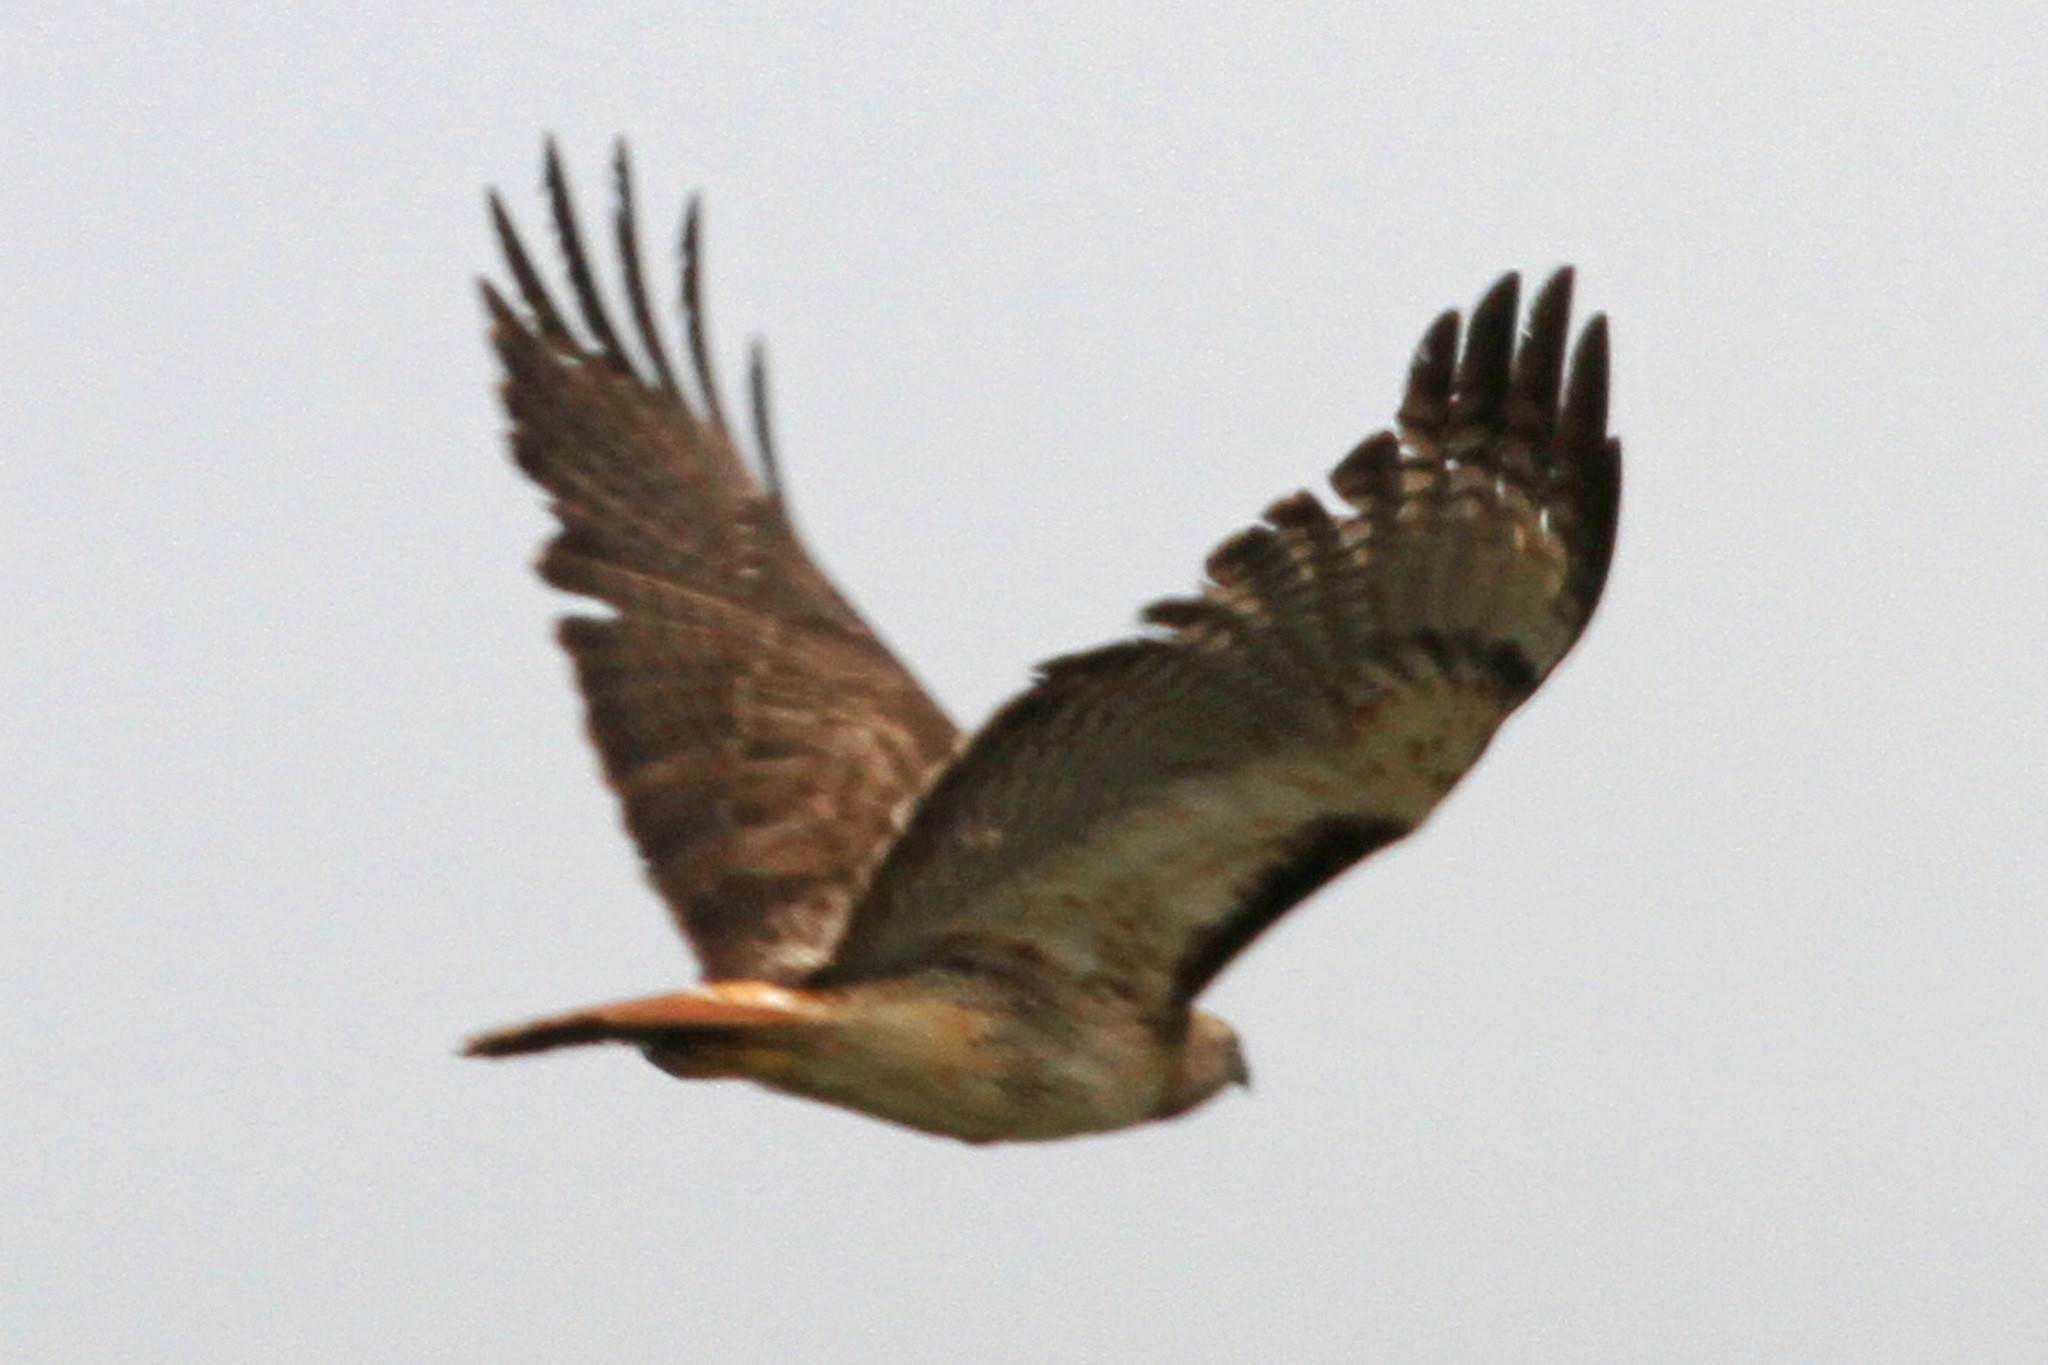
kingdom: Animalia
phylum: Chordata
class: Aves
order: Accipitriformes
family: Accipitridae
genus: Buteo
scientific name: Buteo jamaicensis
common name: Red-tailed hawk
